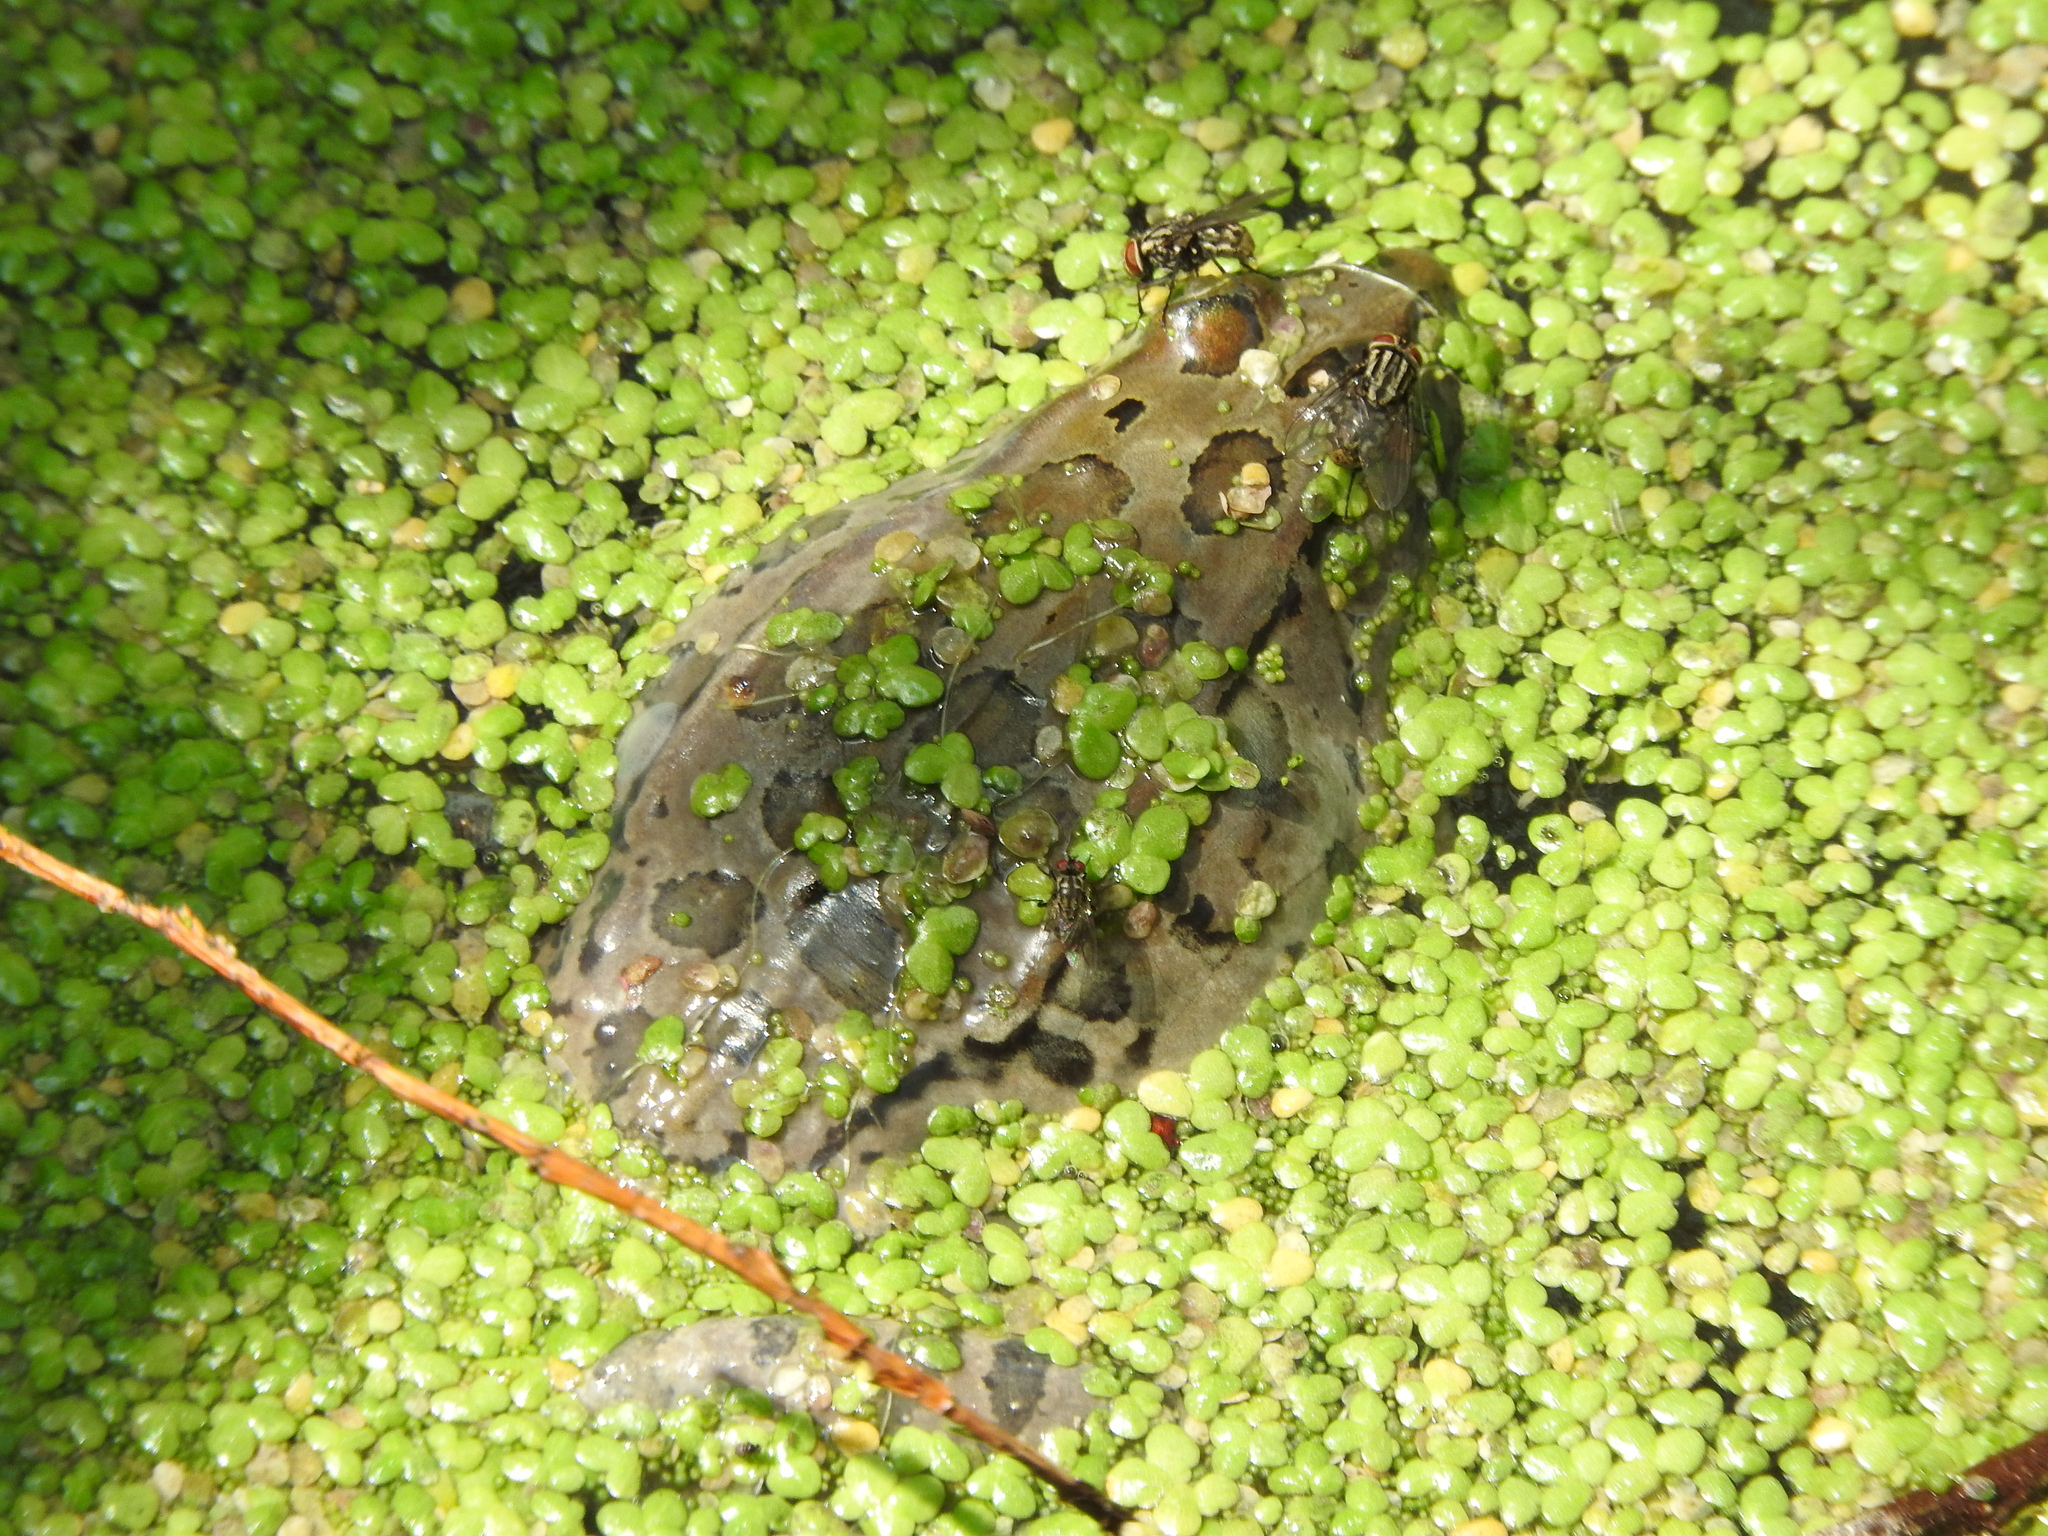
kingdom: Animalia
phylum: Chordata
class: Amphibia
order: Anura
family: Ranidae
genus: Lithobates
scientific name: Lithobates montezumae
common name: Montezuma leopard frog
